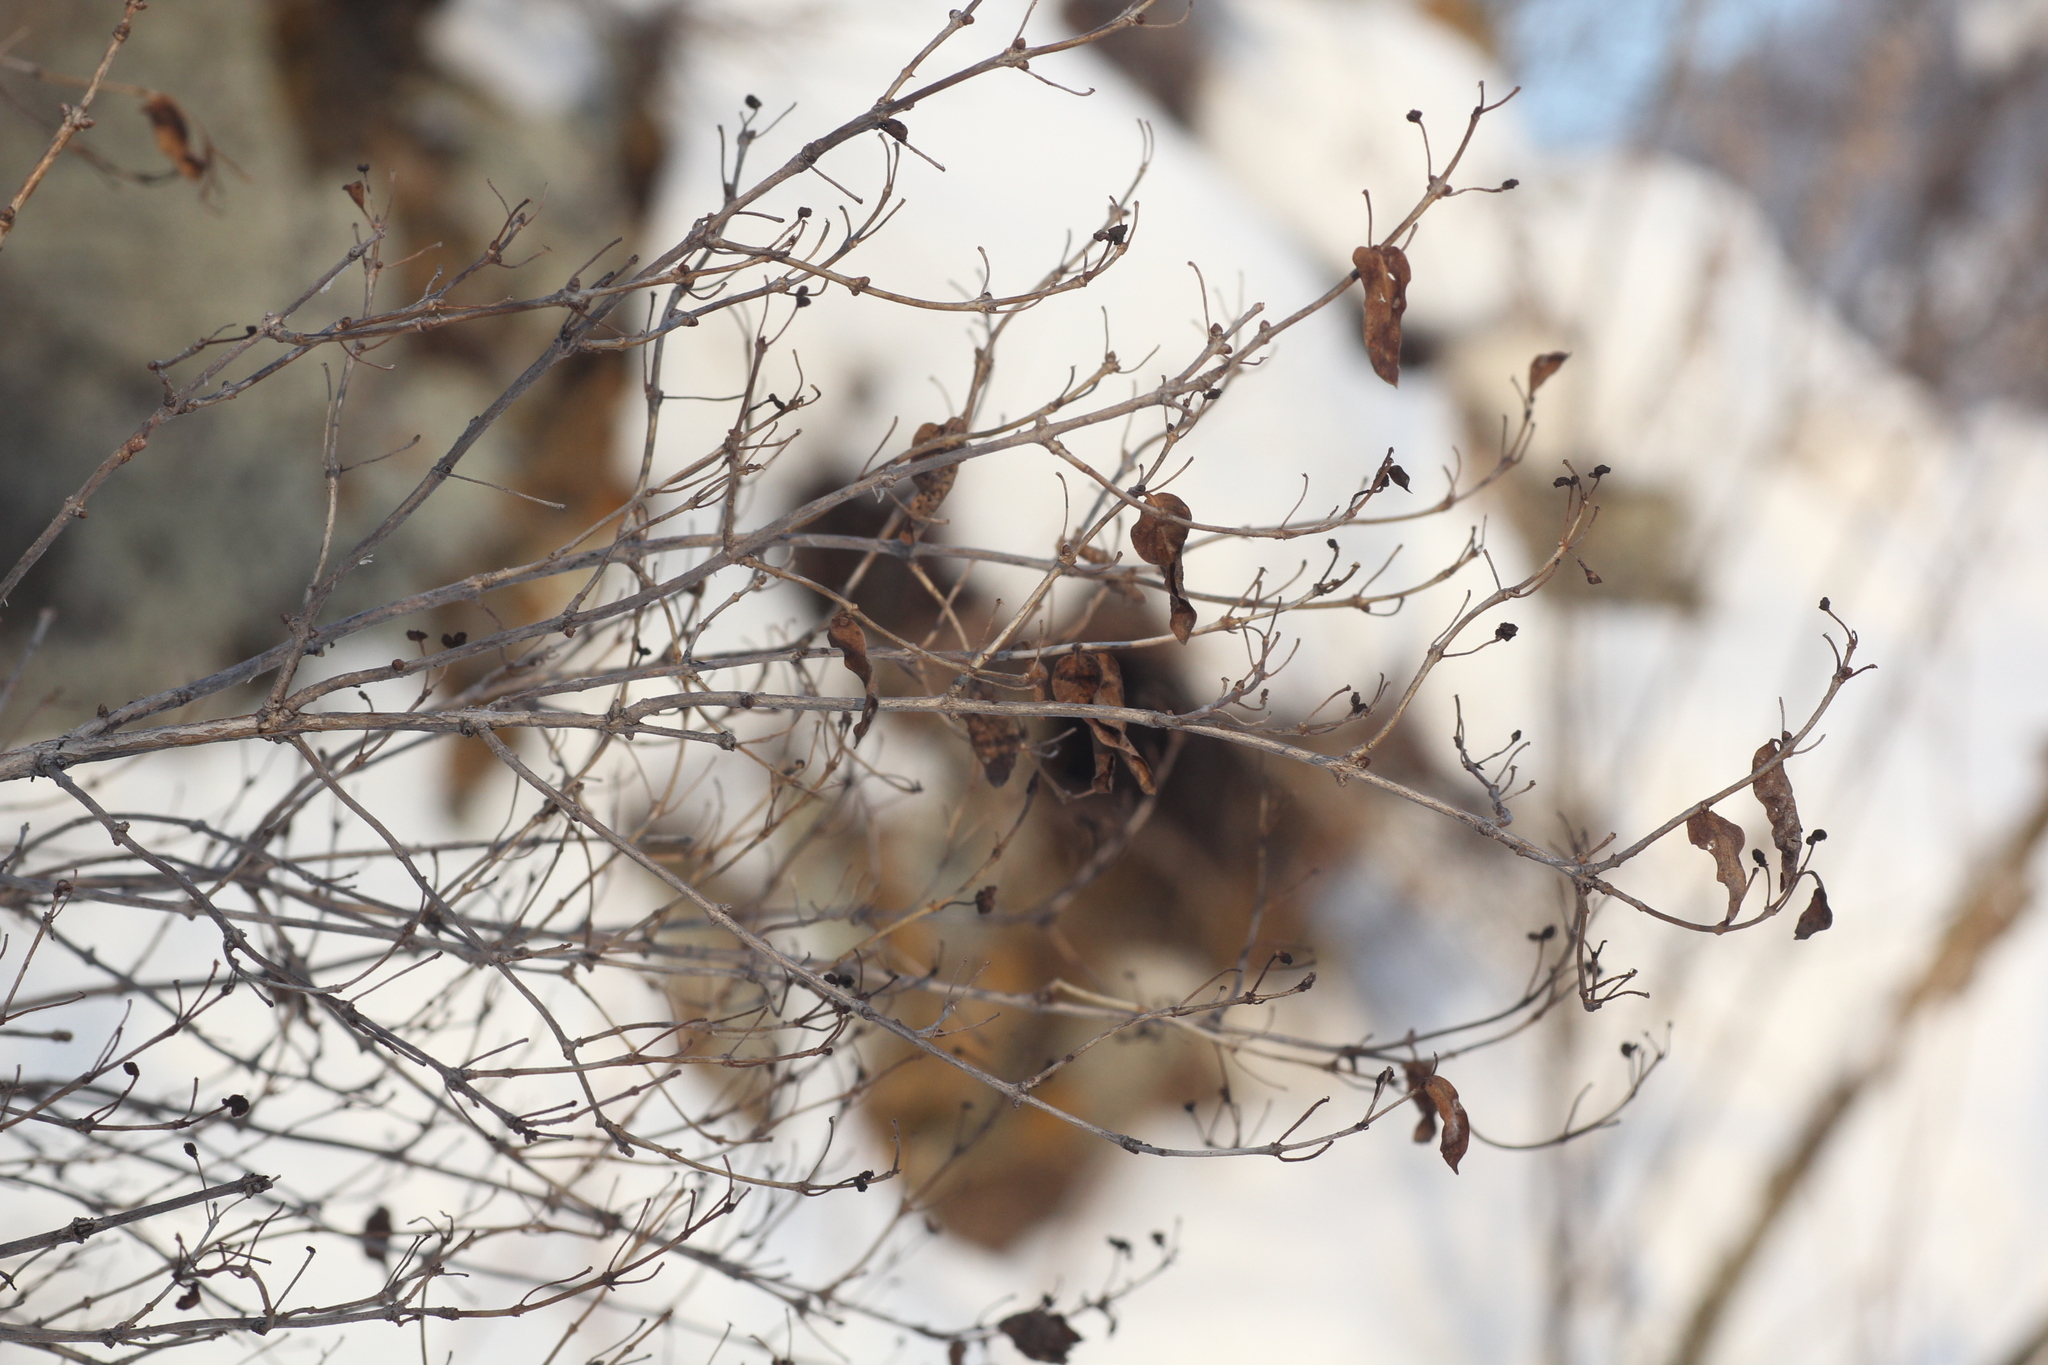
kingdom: Plantae
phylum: Tracheophyta
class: Magnoliopsida
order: Dipsacales
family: Caprifoliaceae
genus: Lonicera
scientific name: Lonicera tatarica
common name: Tatarian honeysuckle
